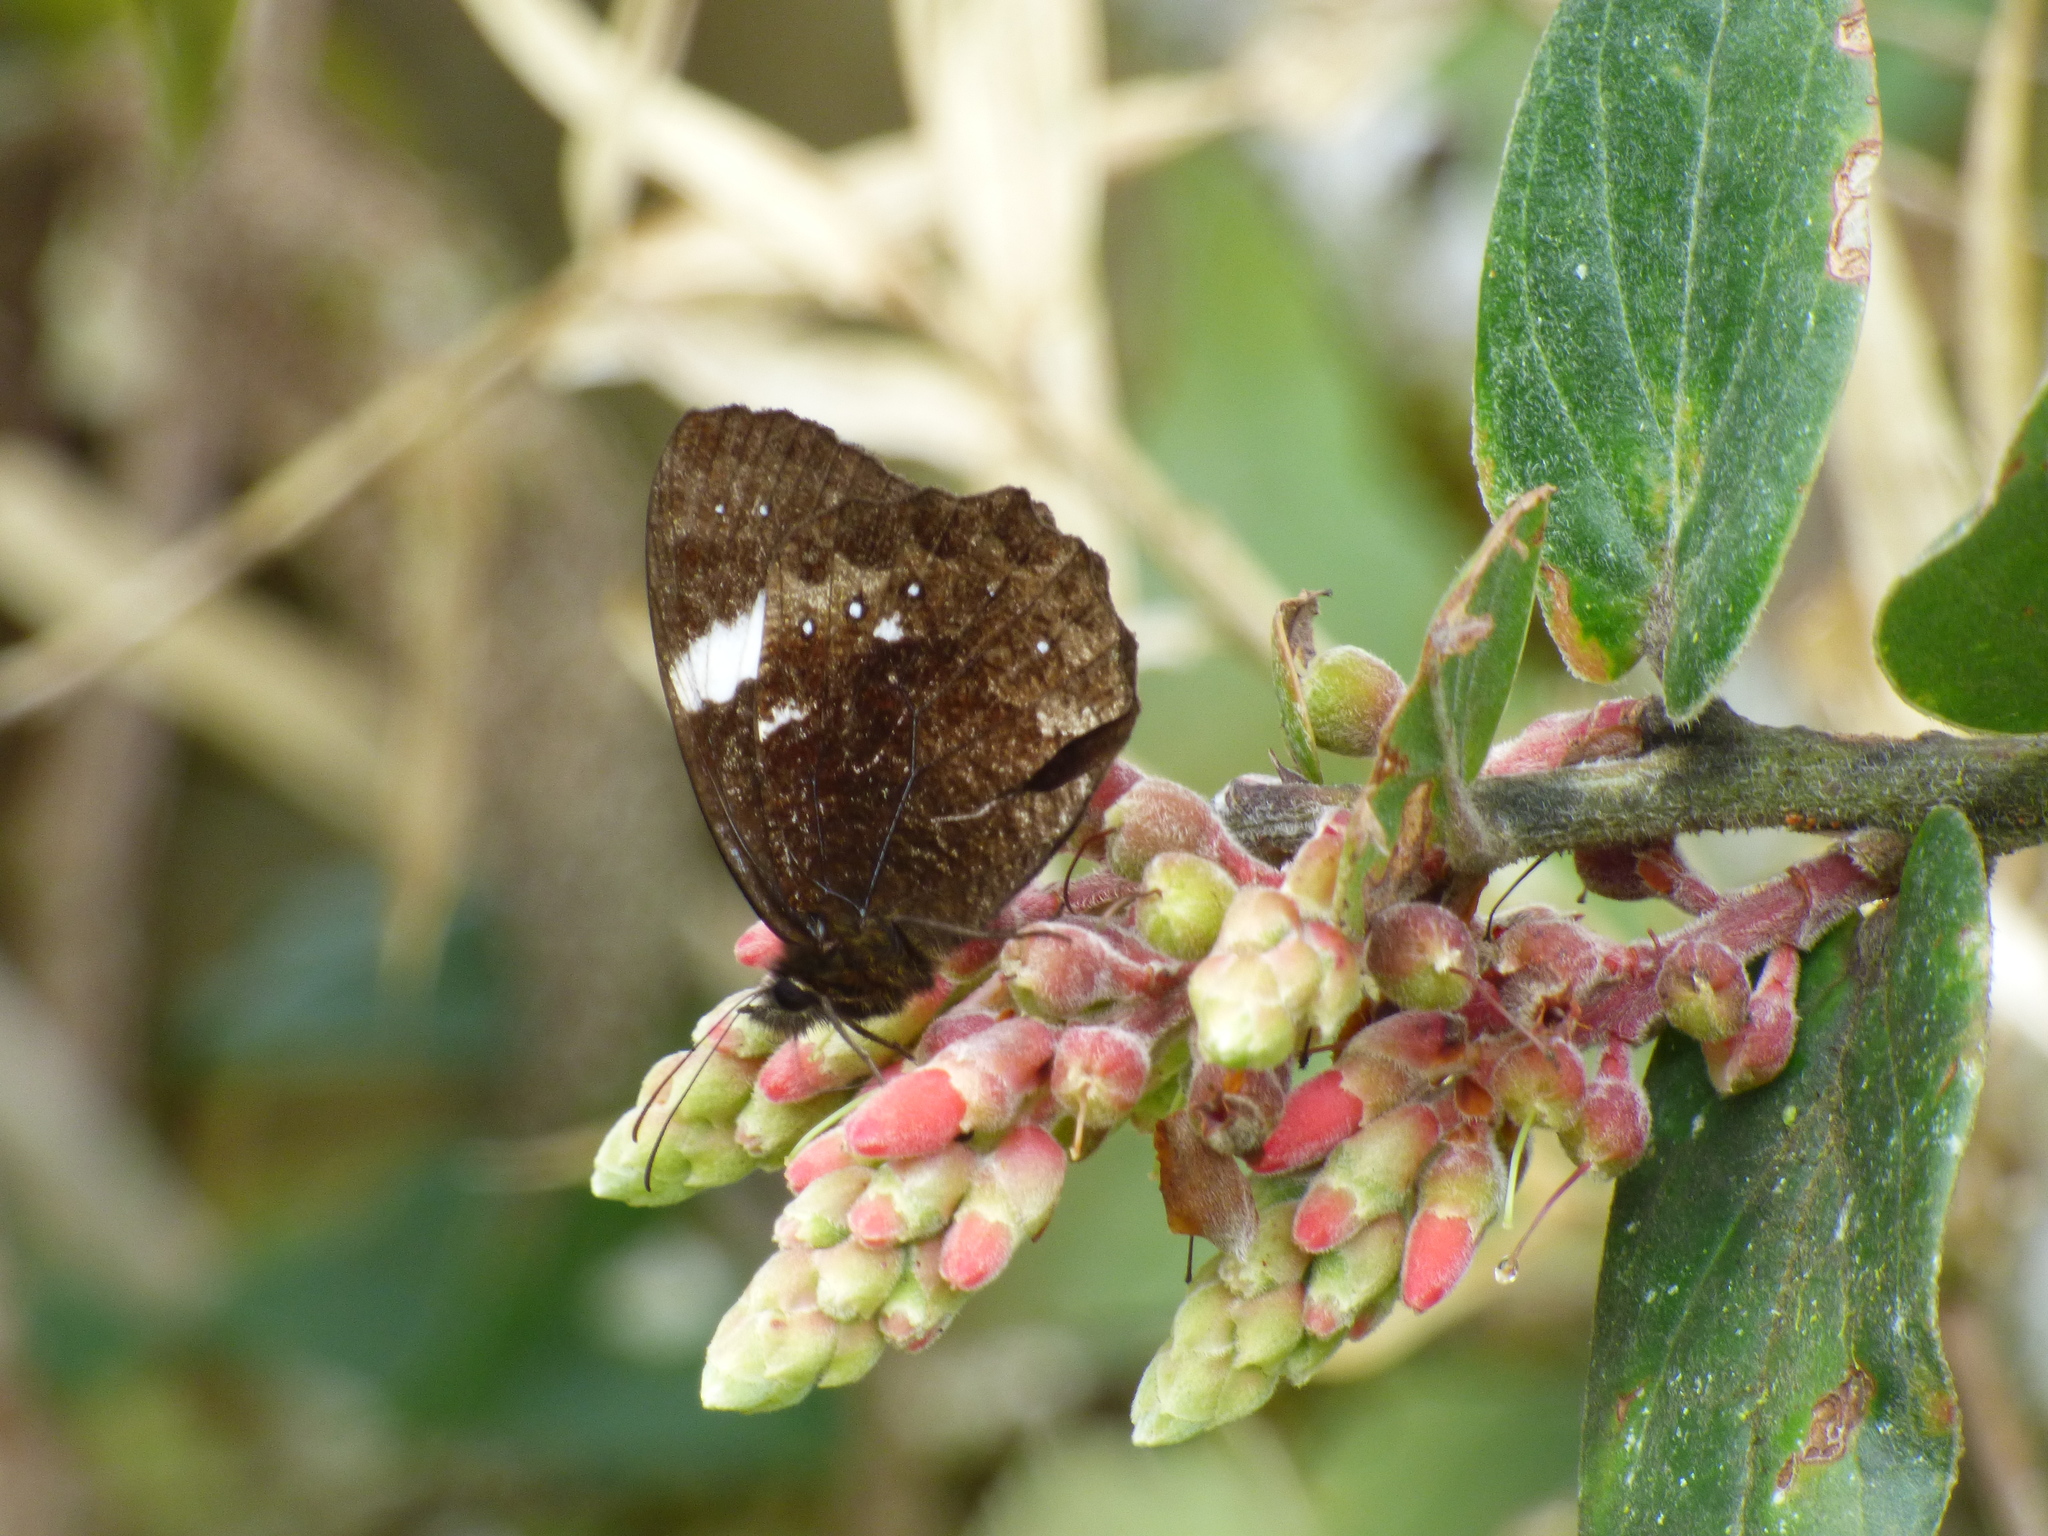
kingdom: Animalia
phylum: Arthropoda
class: Insecta
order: Lepidoptera
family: Nymphalidae
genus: Pedaliodes
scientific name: Pedaliodes peucestas
